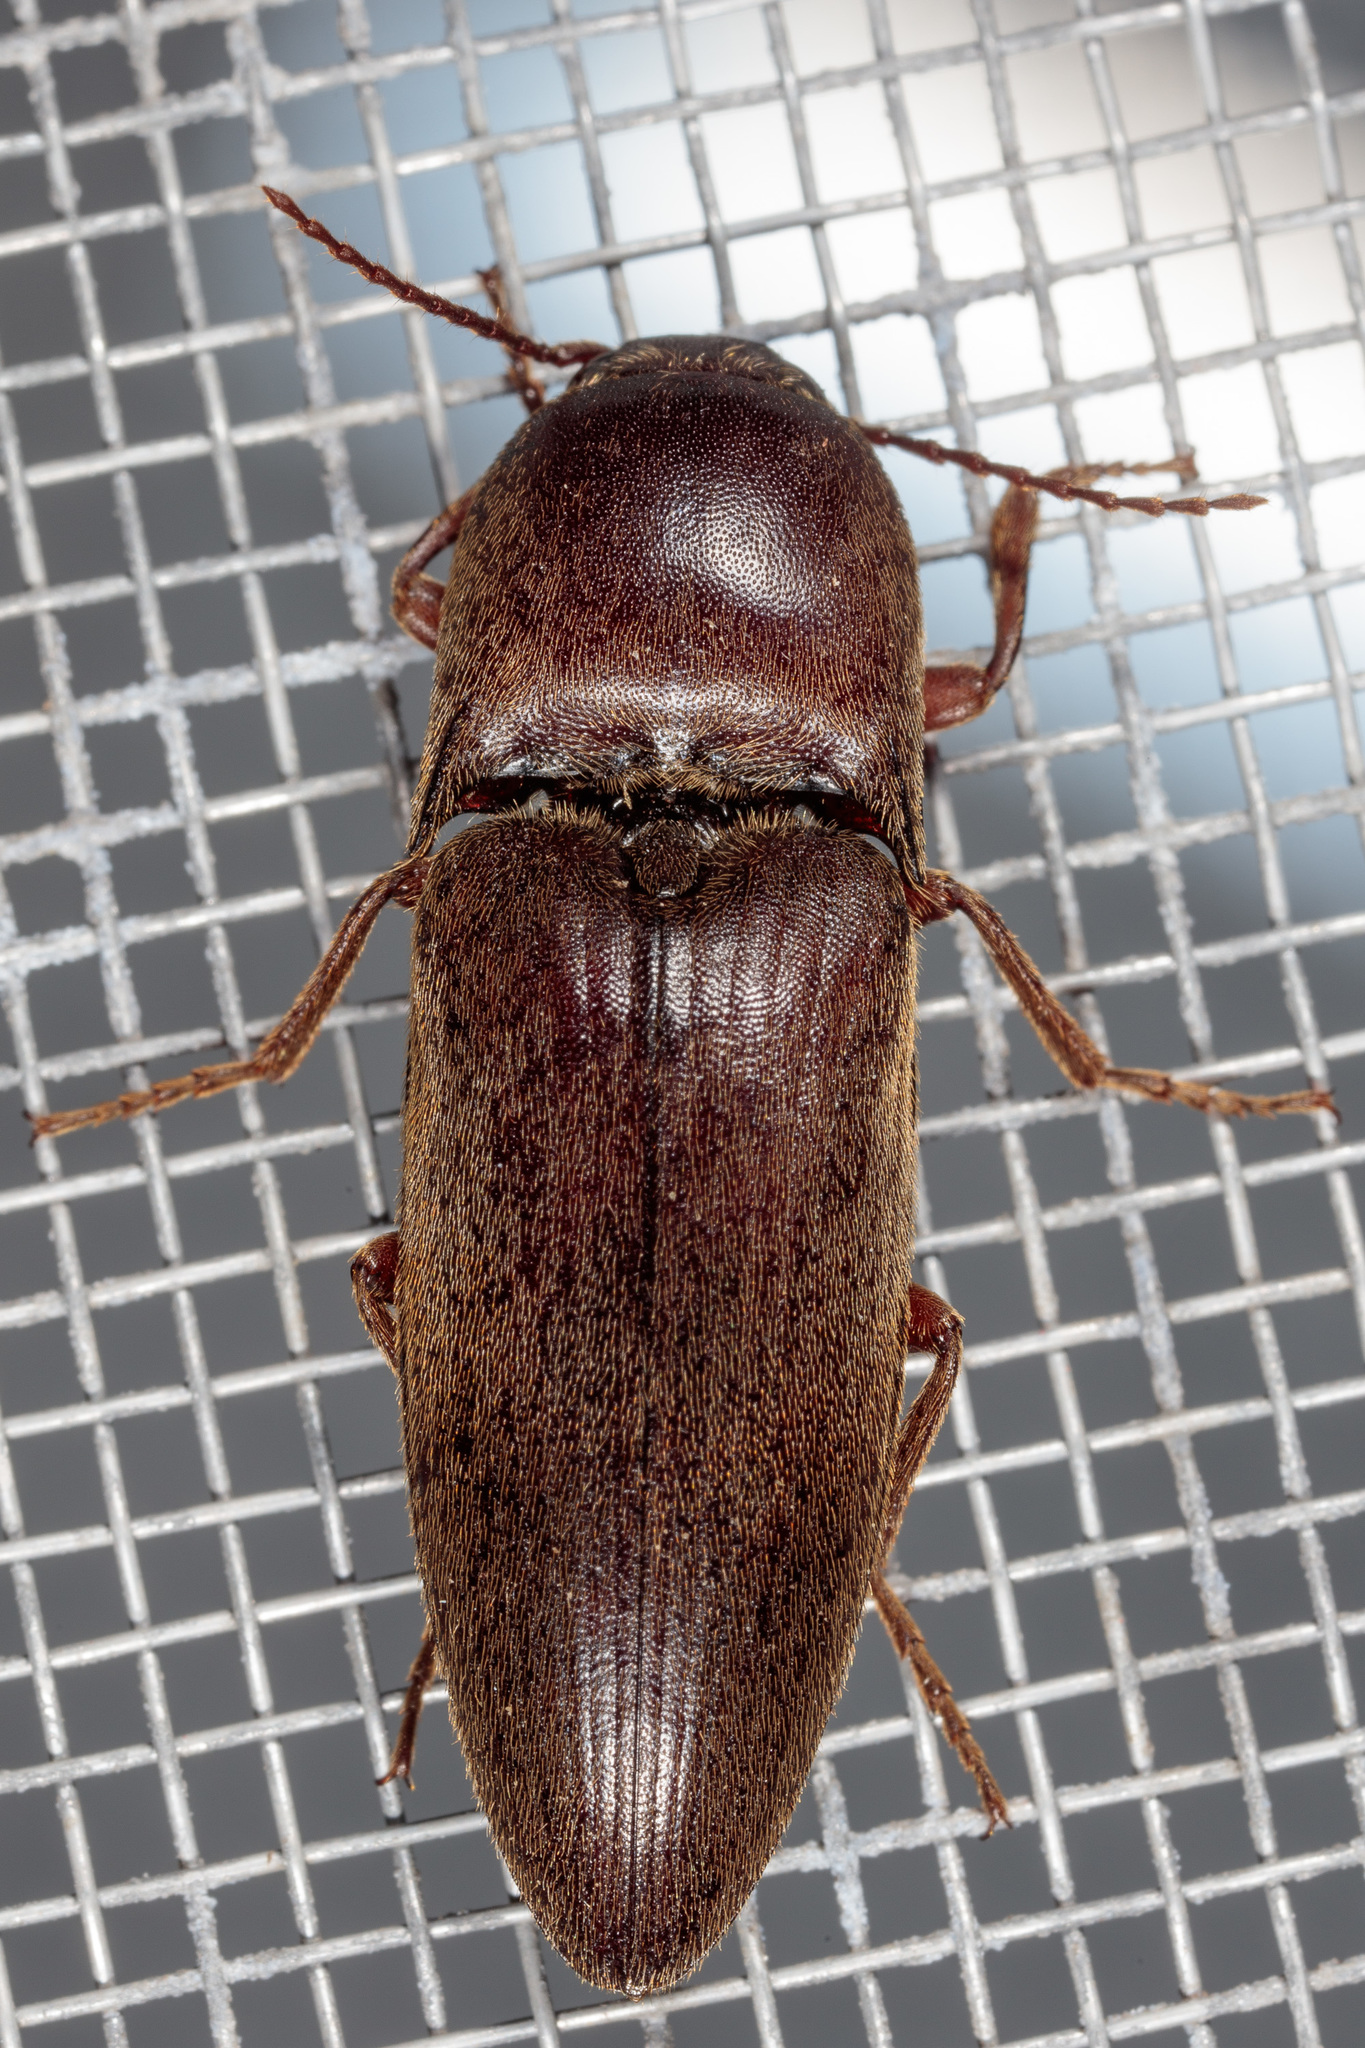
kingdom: Animalia
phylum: Arthropoda
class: Insecta
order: Coleoptera
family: Elateridae
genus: Diplostethus
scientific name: Diplostethus
